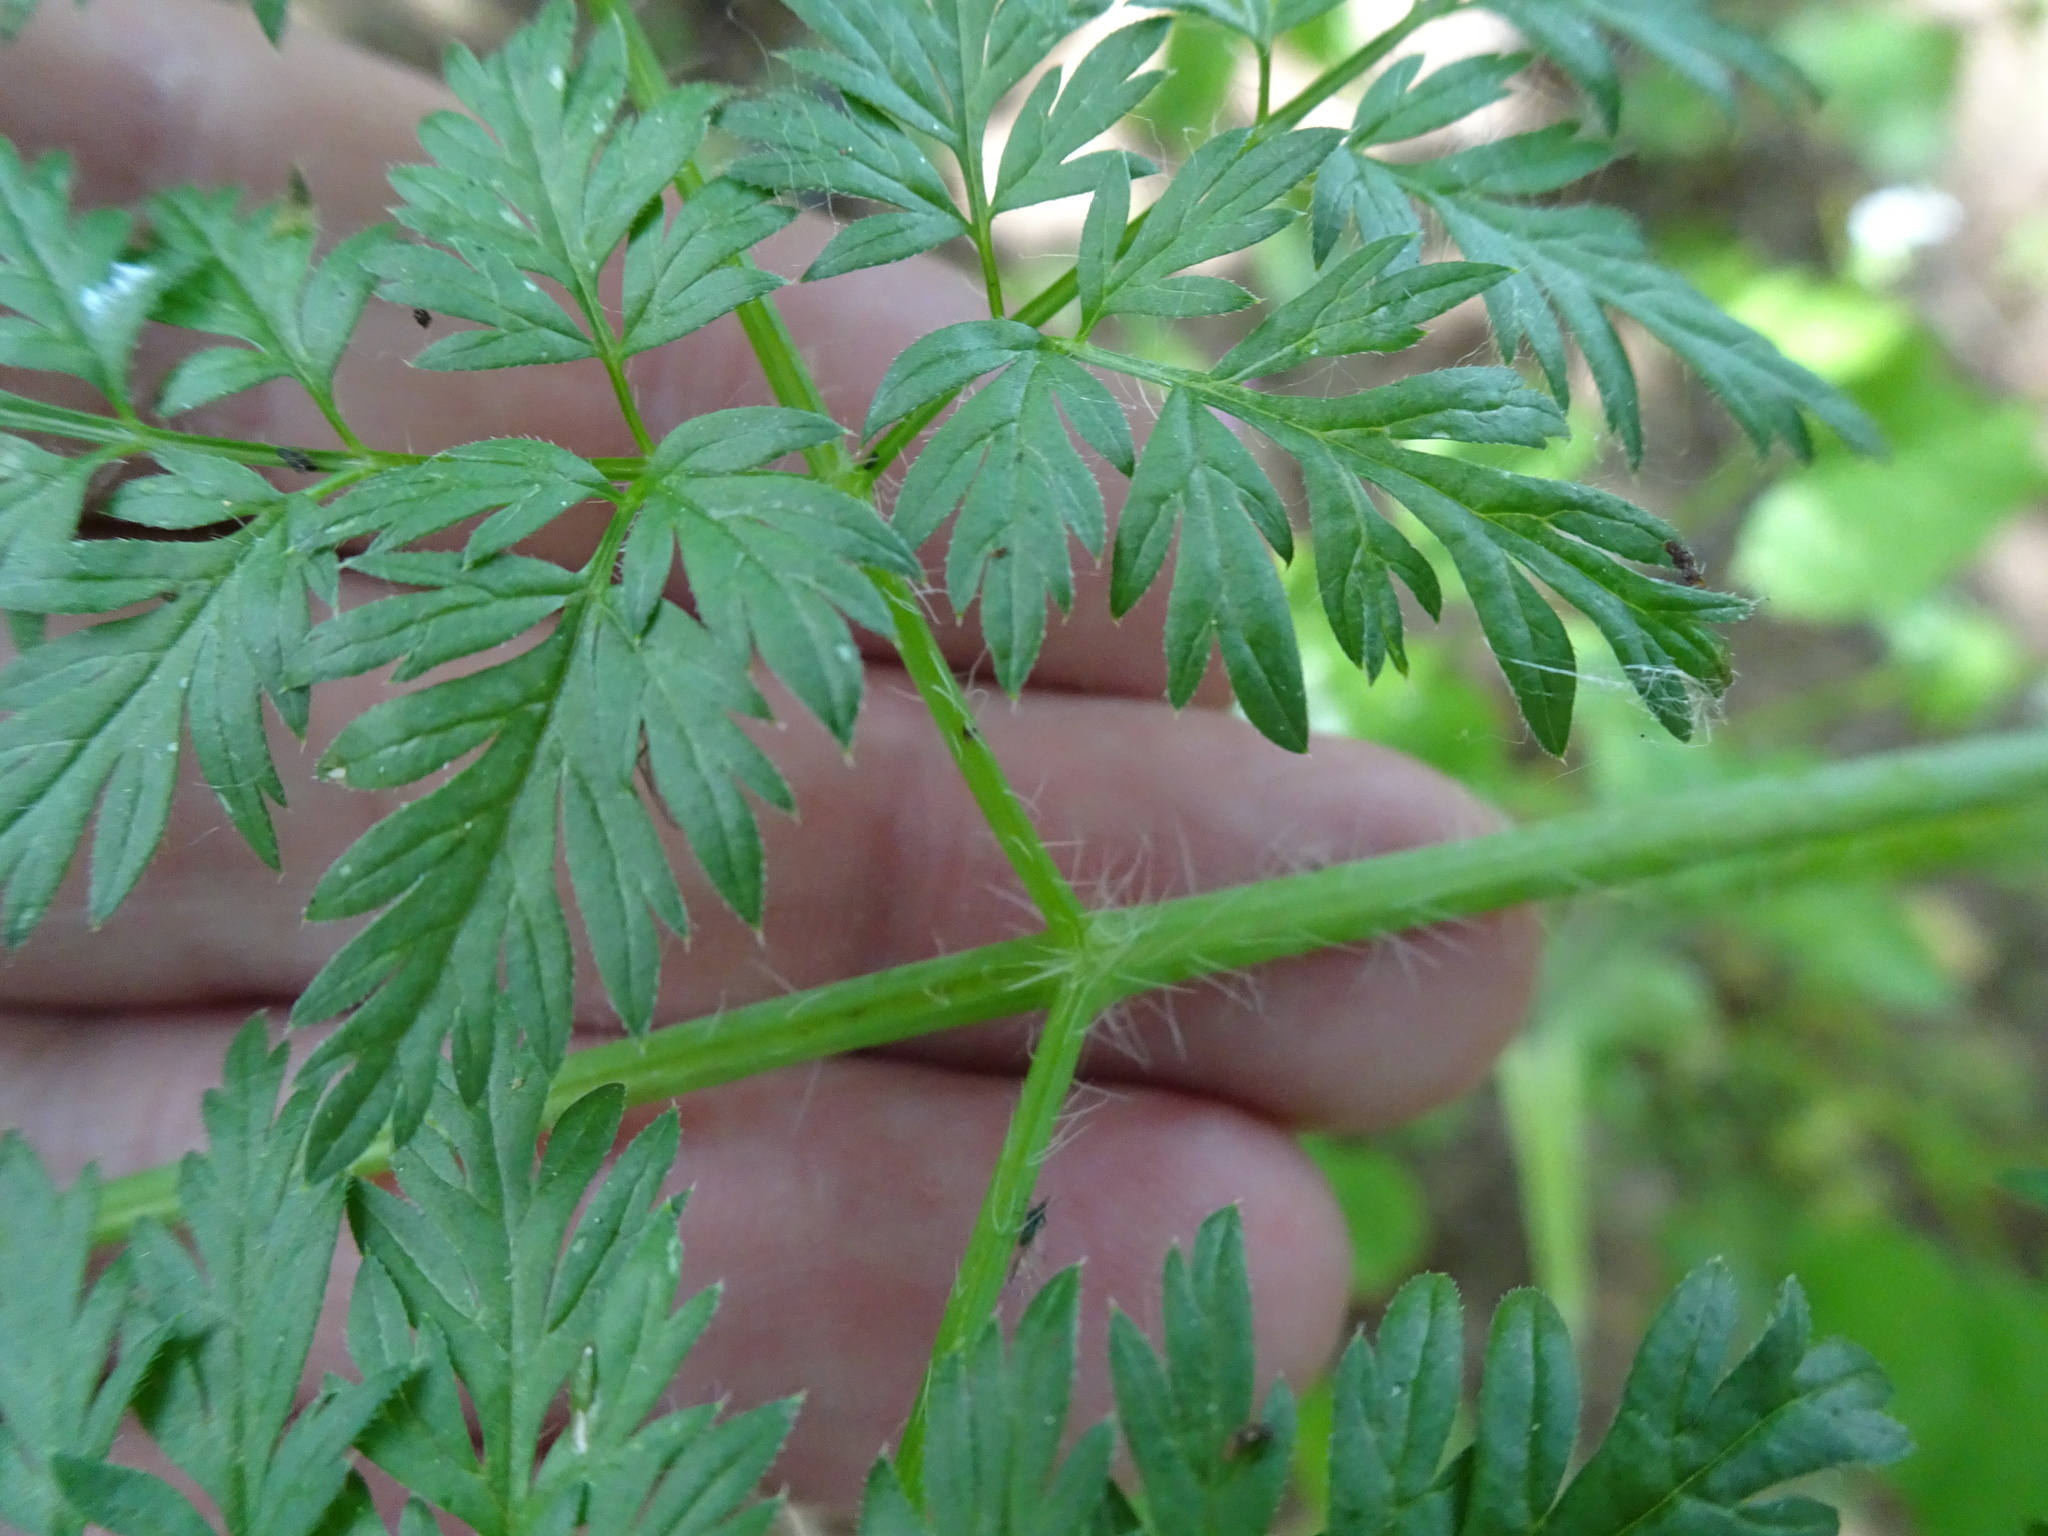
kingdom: Plantae
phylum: Tracheophyta
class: Magnoliopsida
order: Apiales
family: Apiaceae
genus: Chaerophyllum
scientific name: Chaerophyllum bulbosum
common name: Bulbous chervil
